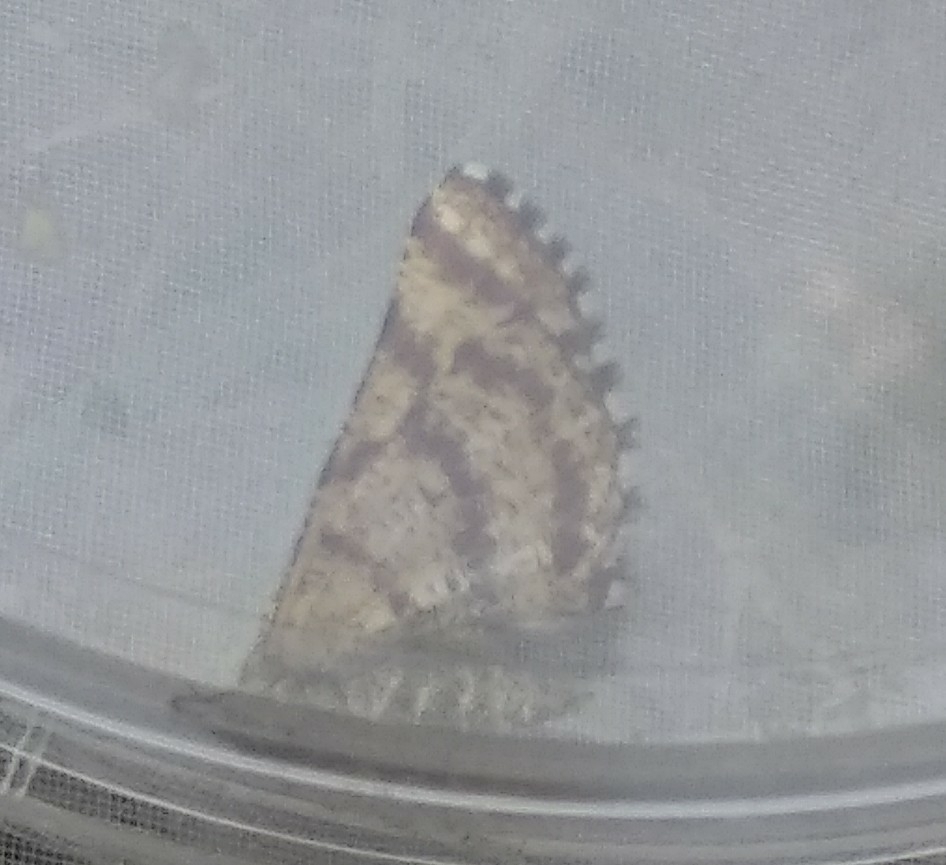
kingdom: Animalia
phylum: Arthropoda
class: Insecta
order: Lepidoptera
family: Geometridae
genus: Ematurga
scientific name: Ematurga atomaria
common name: Common heath
